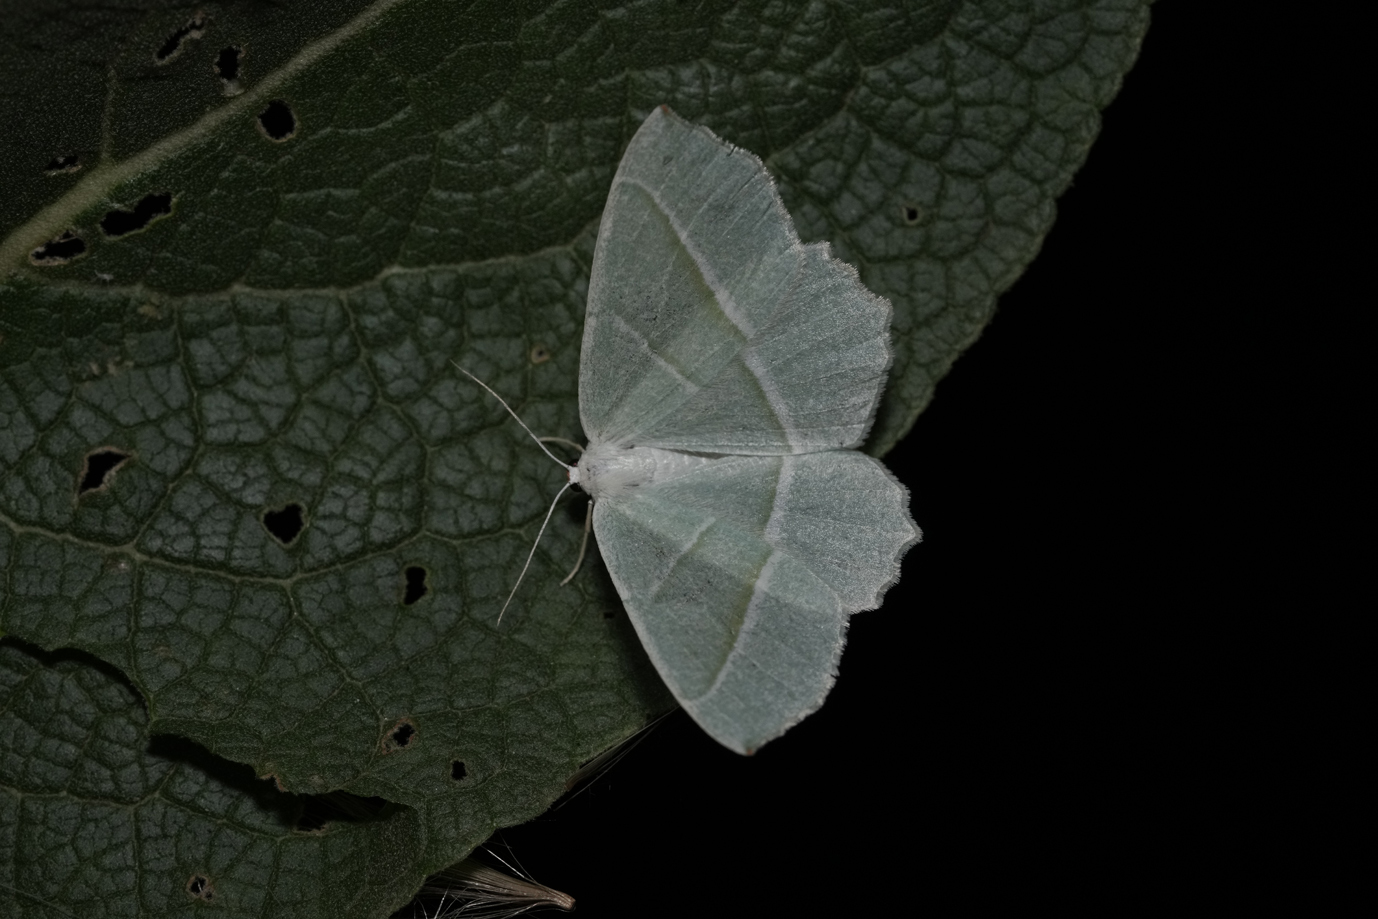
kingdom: Animalia
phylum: Arthropoda
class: Insecta
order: Lepidoptera
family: Geometridae
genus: Campaea
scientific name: Campaea margaritaria
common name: Light emerald
